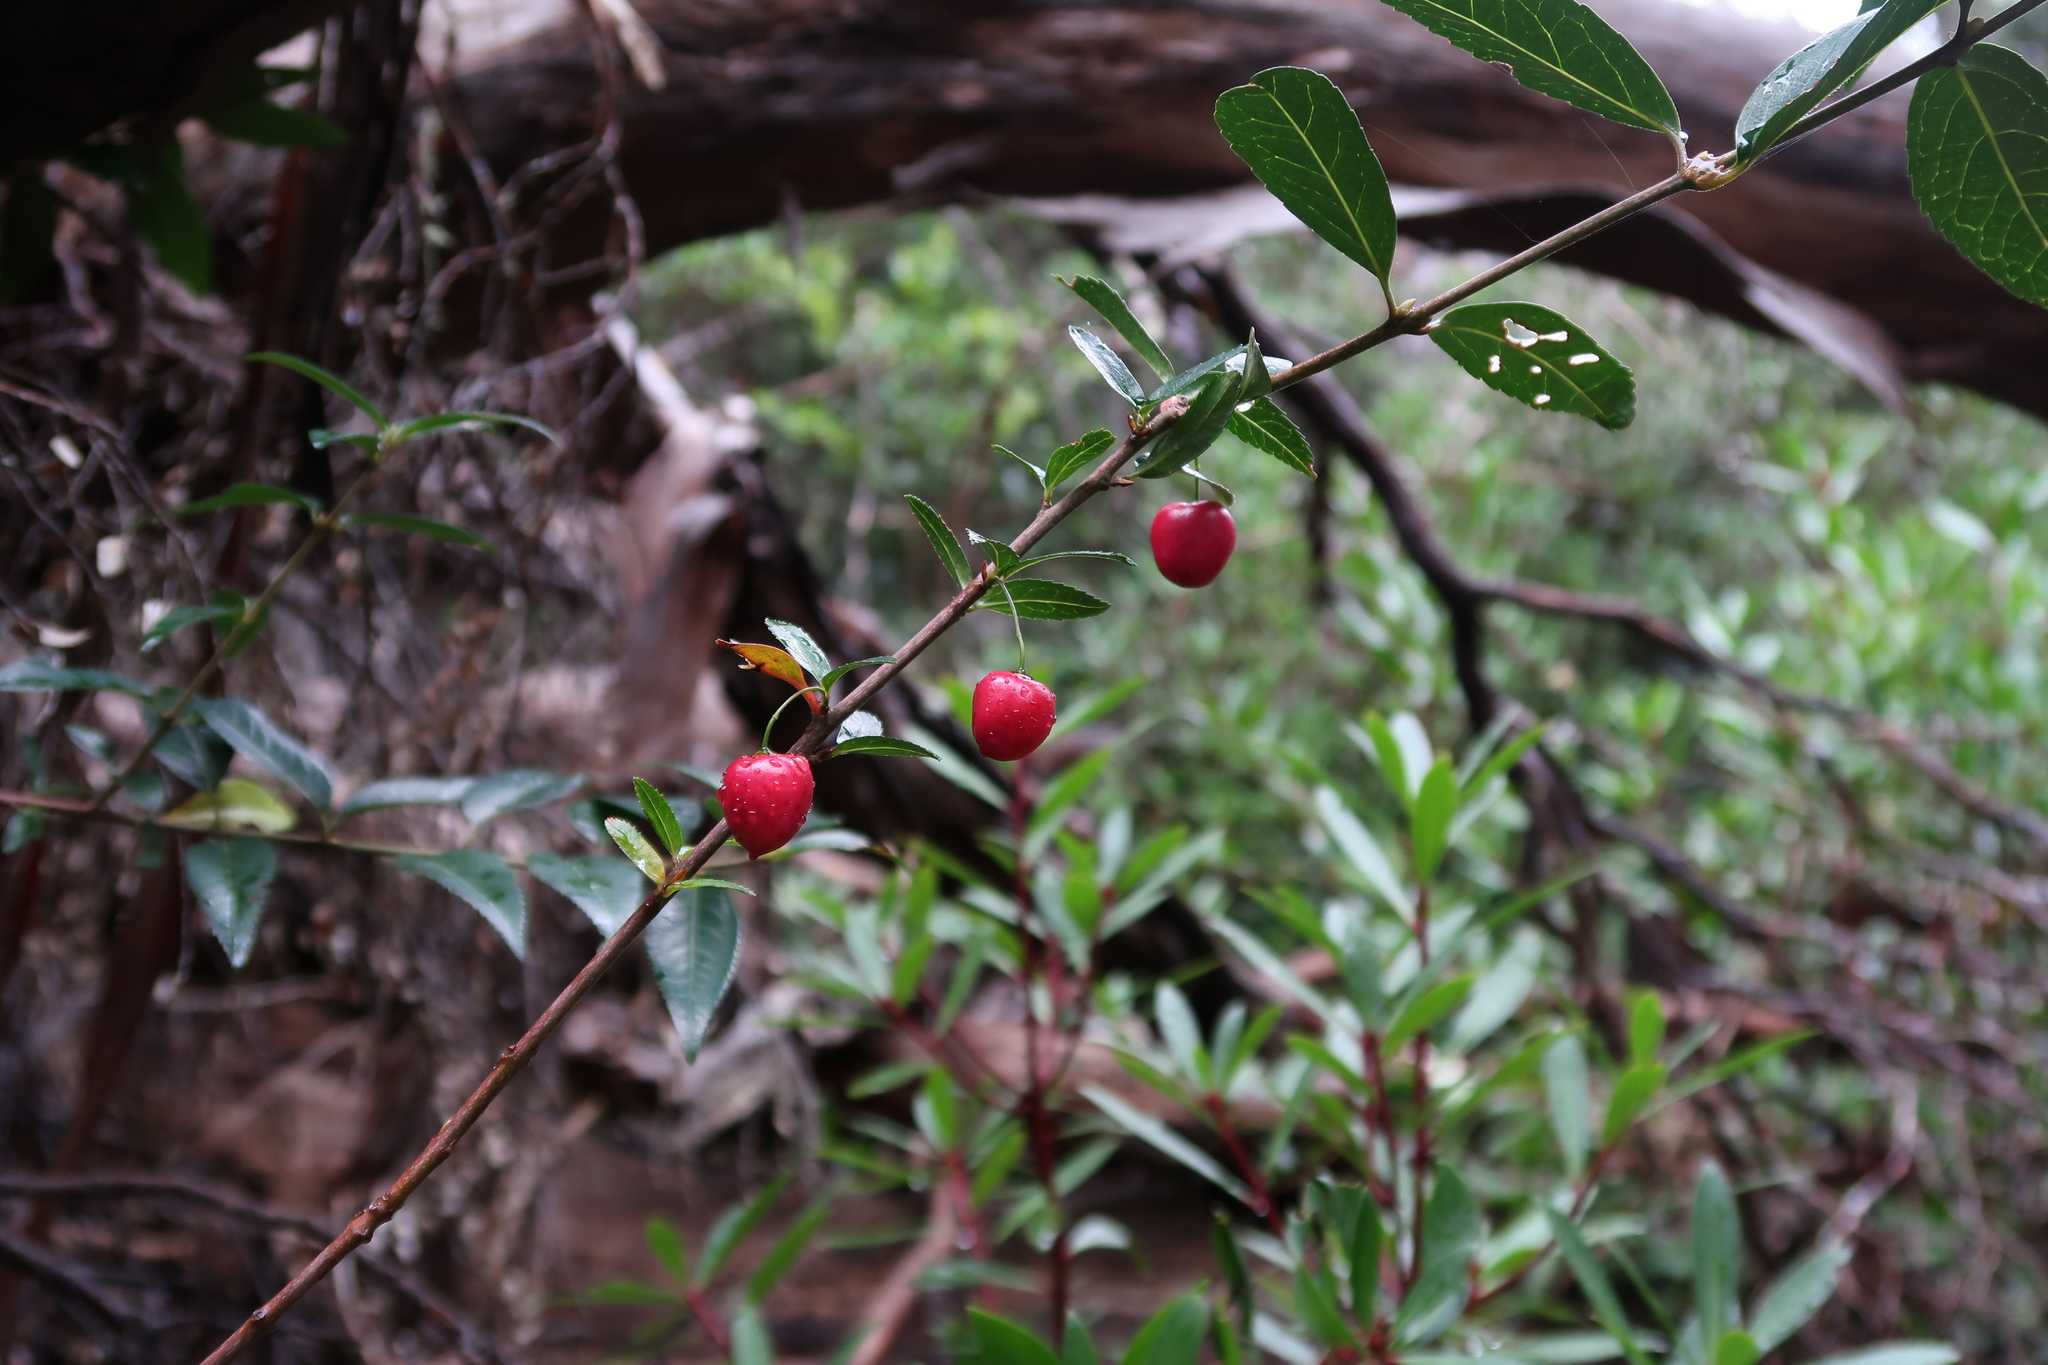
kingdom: Plantae
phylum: Tracheophyta
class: Magnoliopsida
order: Oxalidales
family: Elaeocarpaceae
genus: Aristotelia
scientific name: Aristotelia peduncularis
